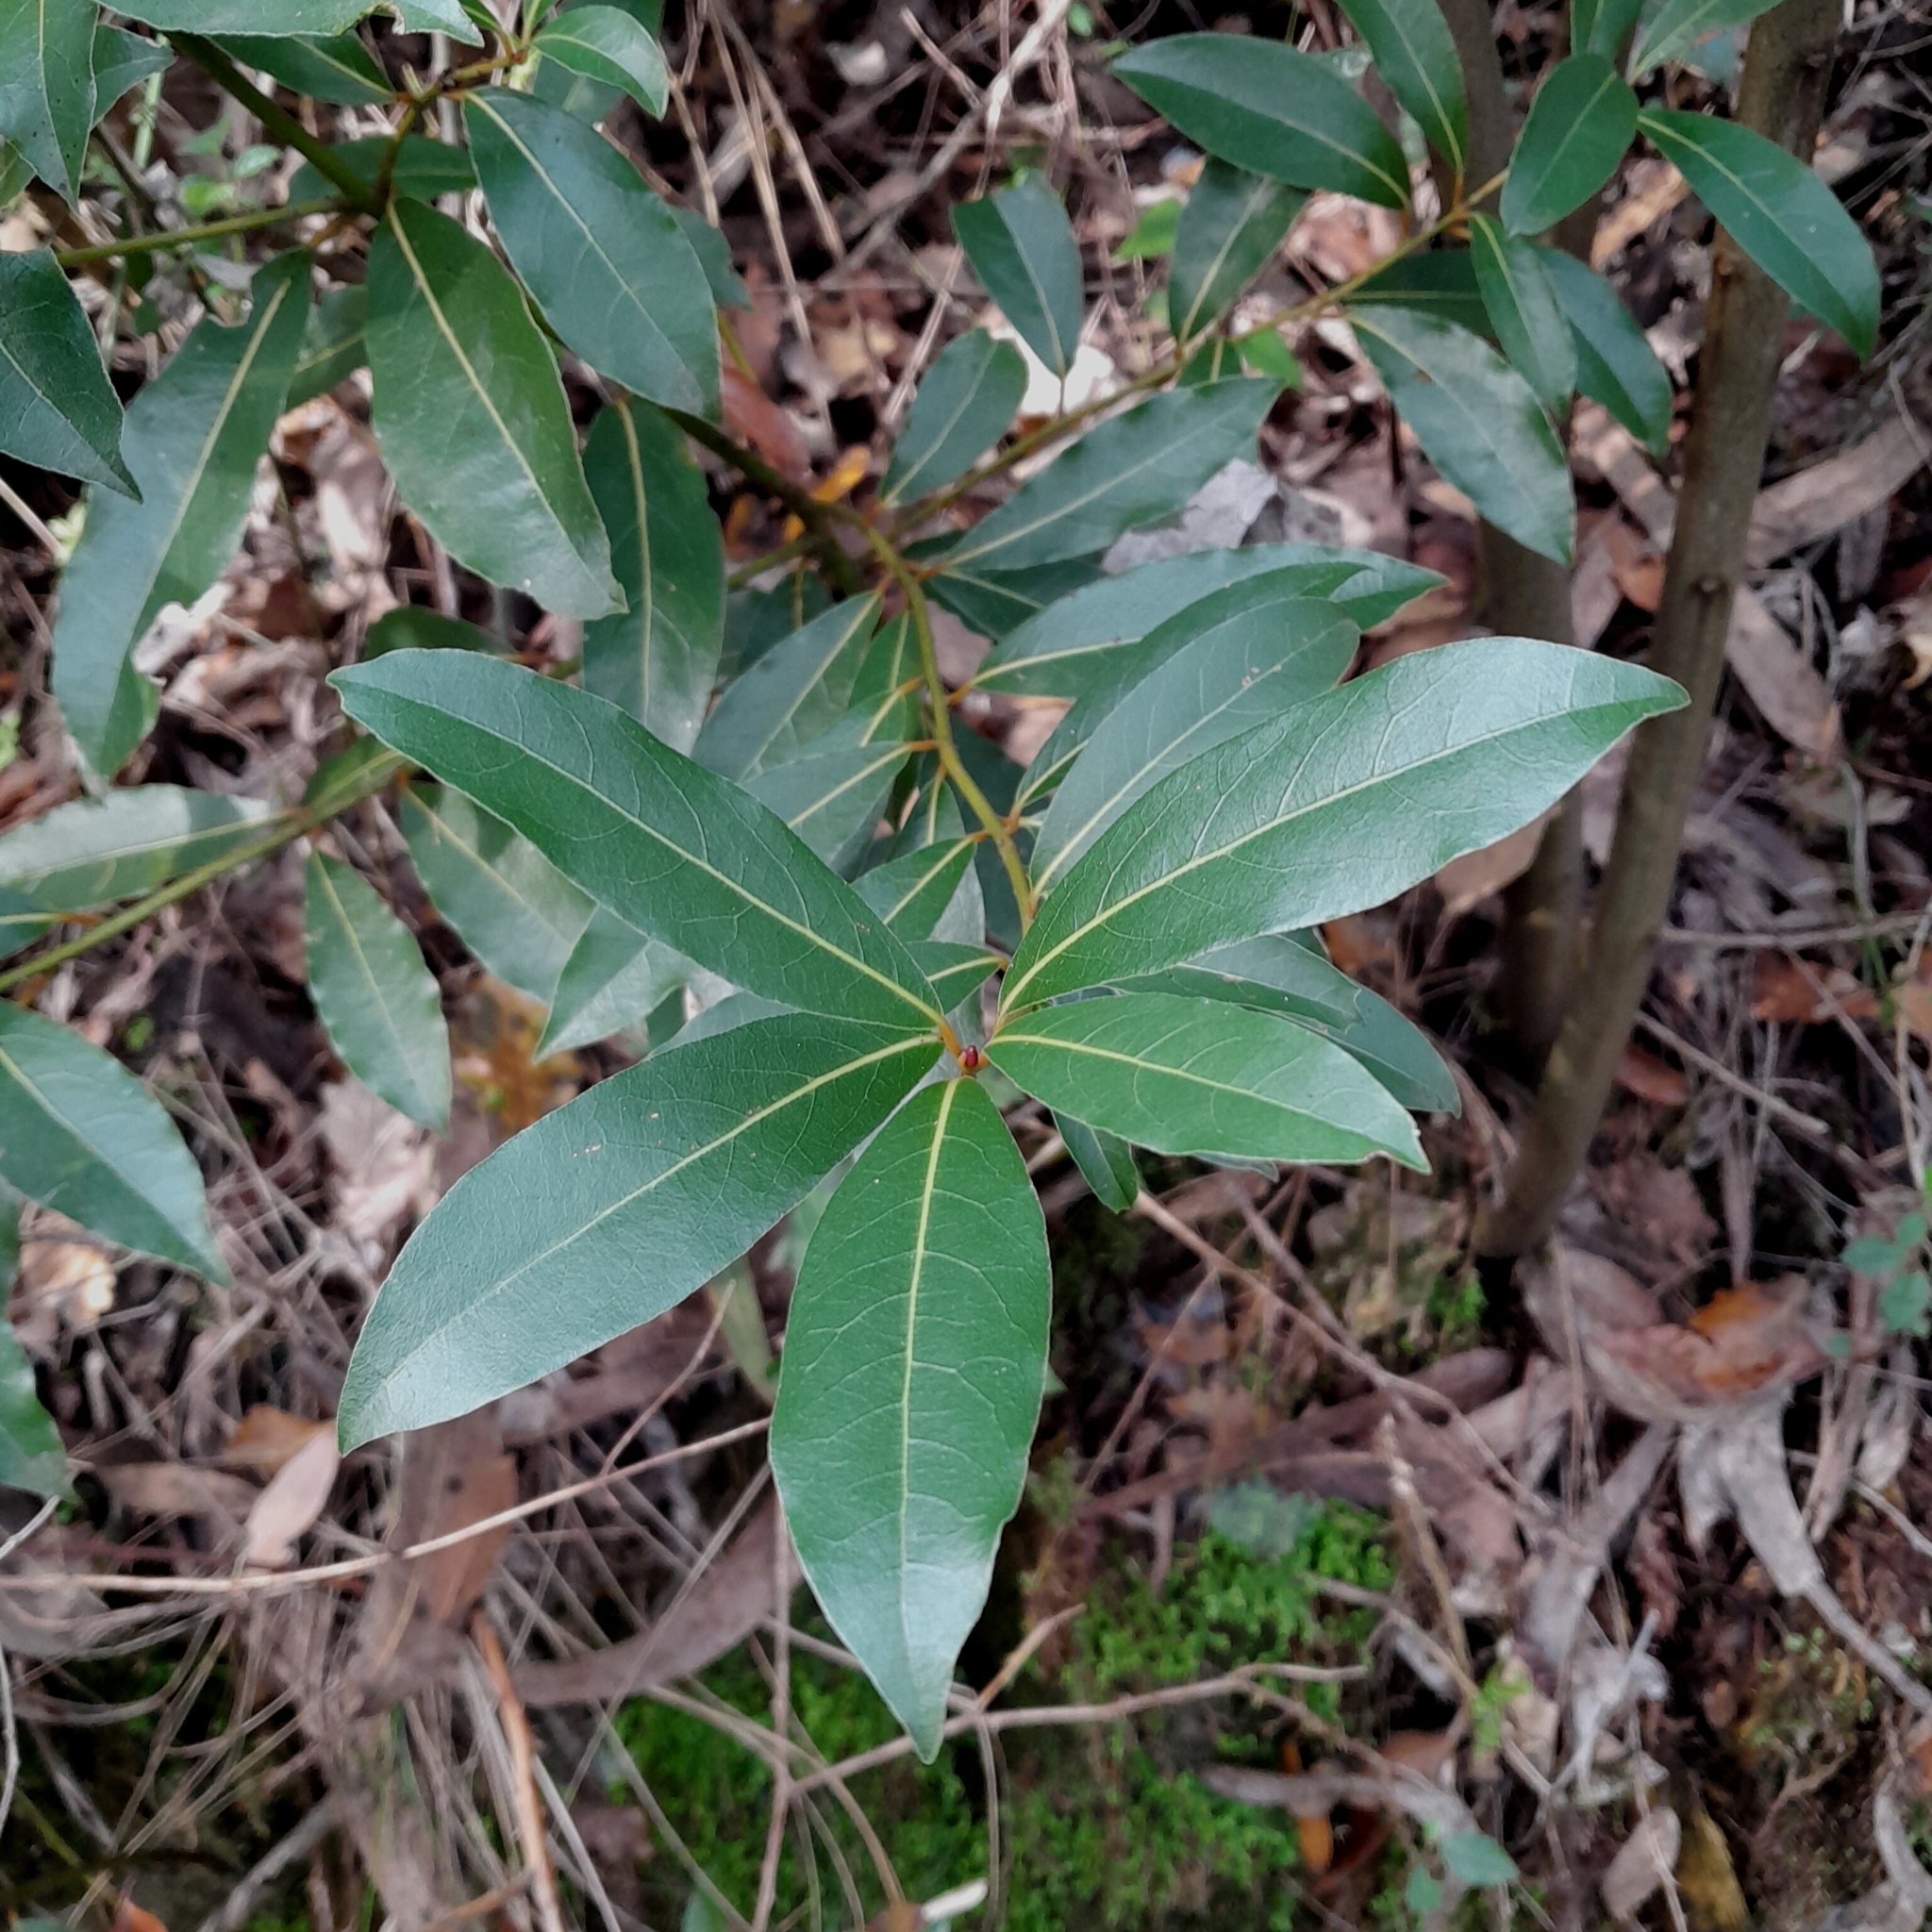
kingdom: Plantae
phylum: Tracheophyta
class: Magnoliopsida
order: Laurales
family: Lauraceae
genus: Laurus
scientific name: Laurus nobilis
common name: Bay
